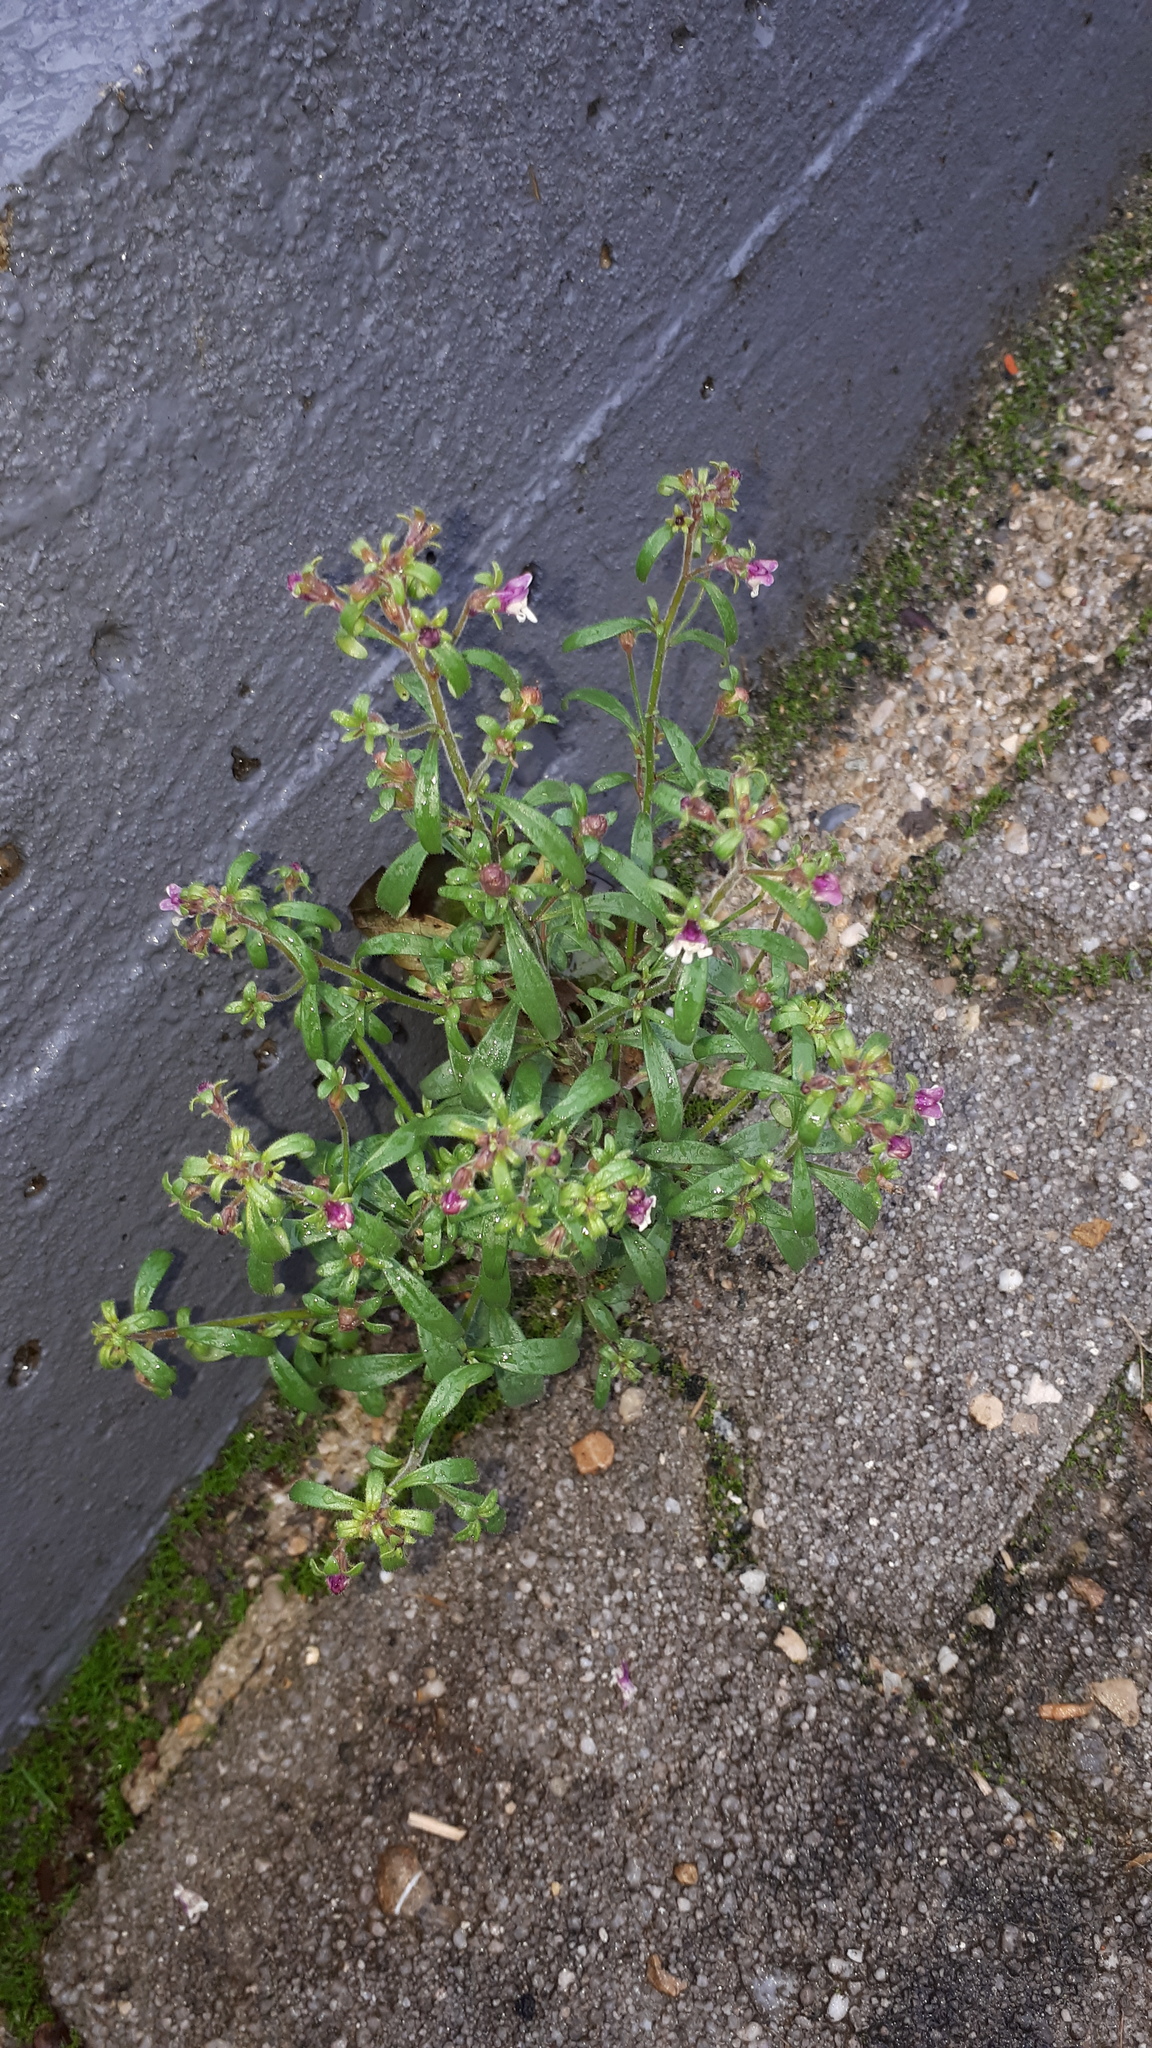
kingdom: Plantae
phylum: Tracheophyta
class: Magnoliopsida
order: Lamiales
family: Plantaginaceae
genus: Chaenorhinum
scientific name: Chaenorhinum minus
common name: Dwarf snapdragon
